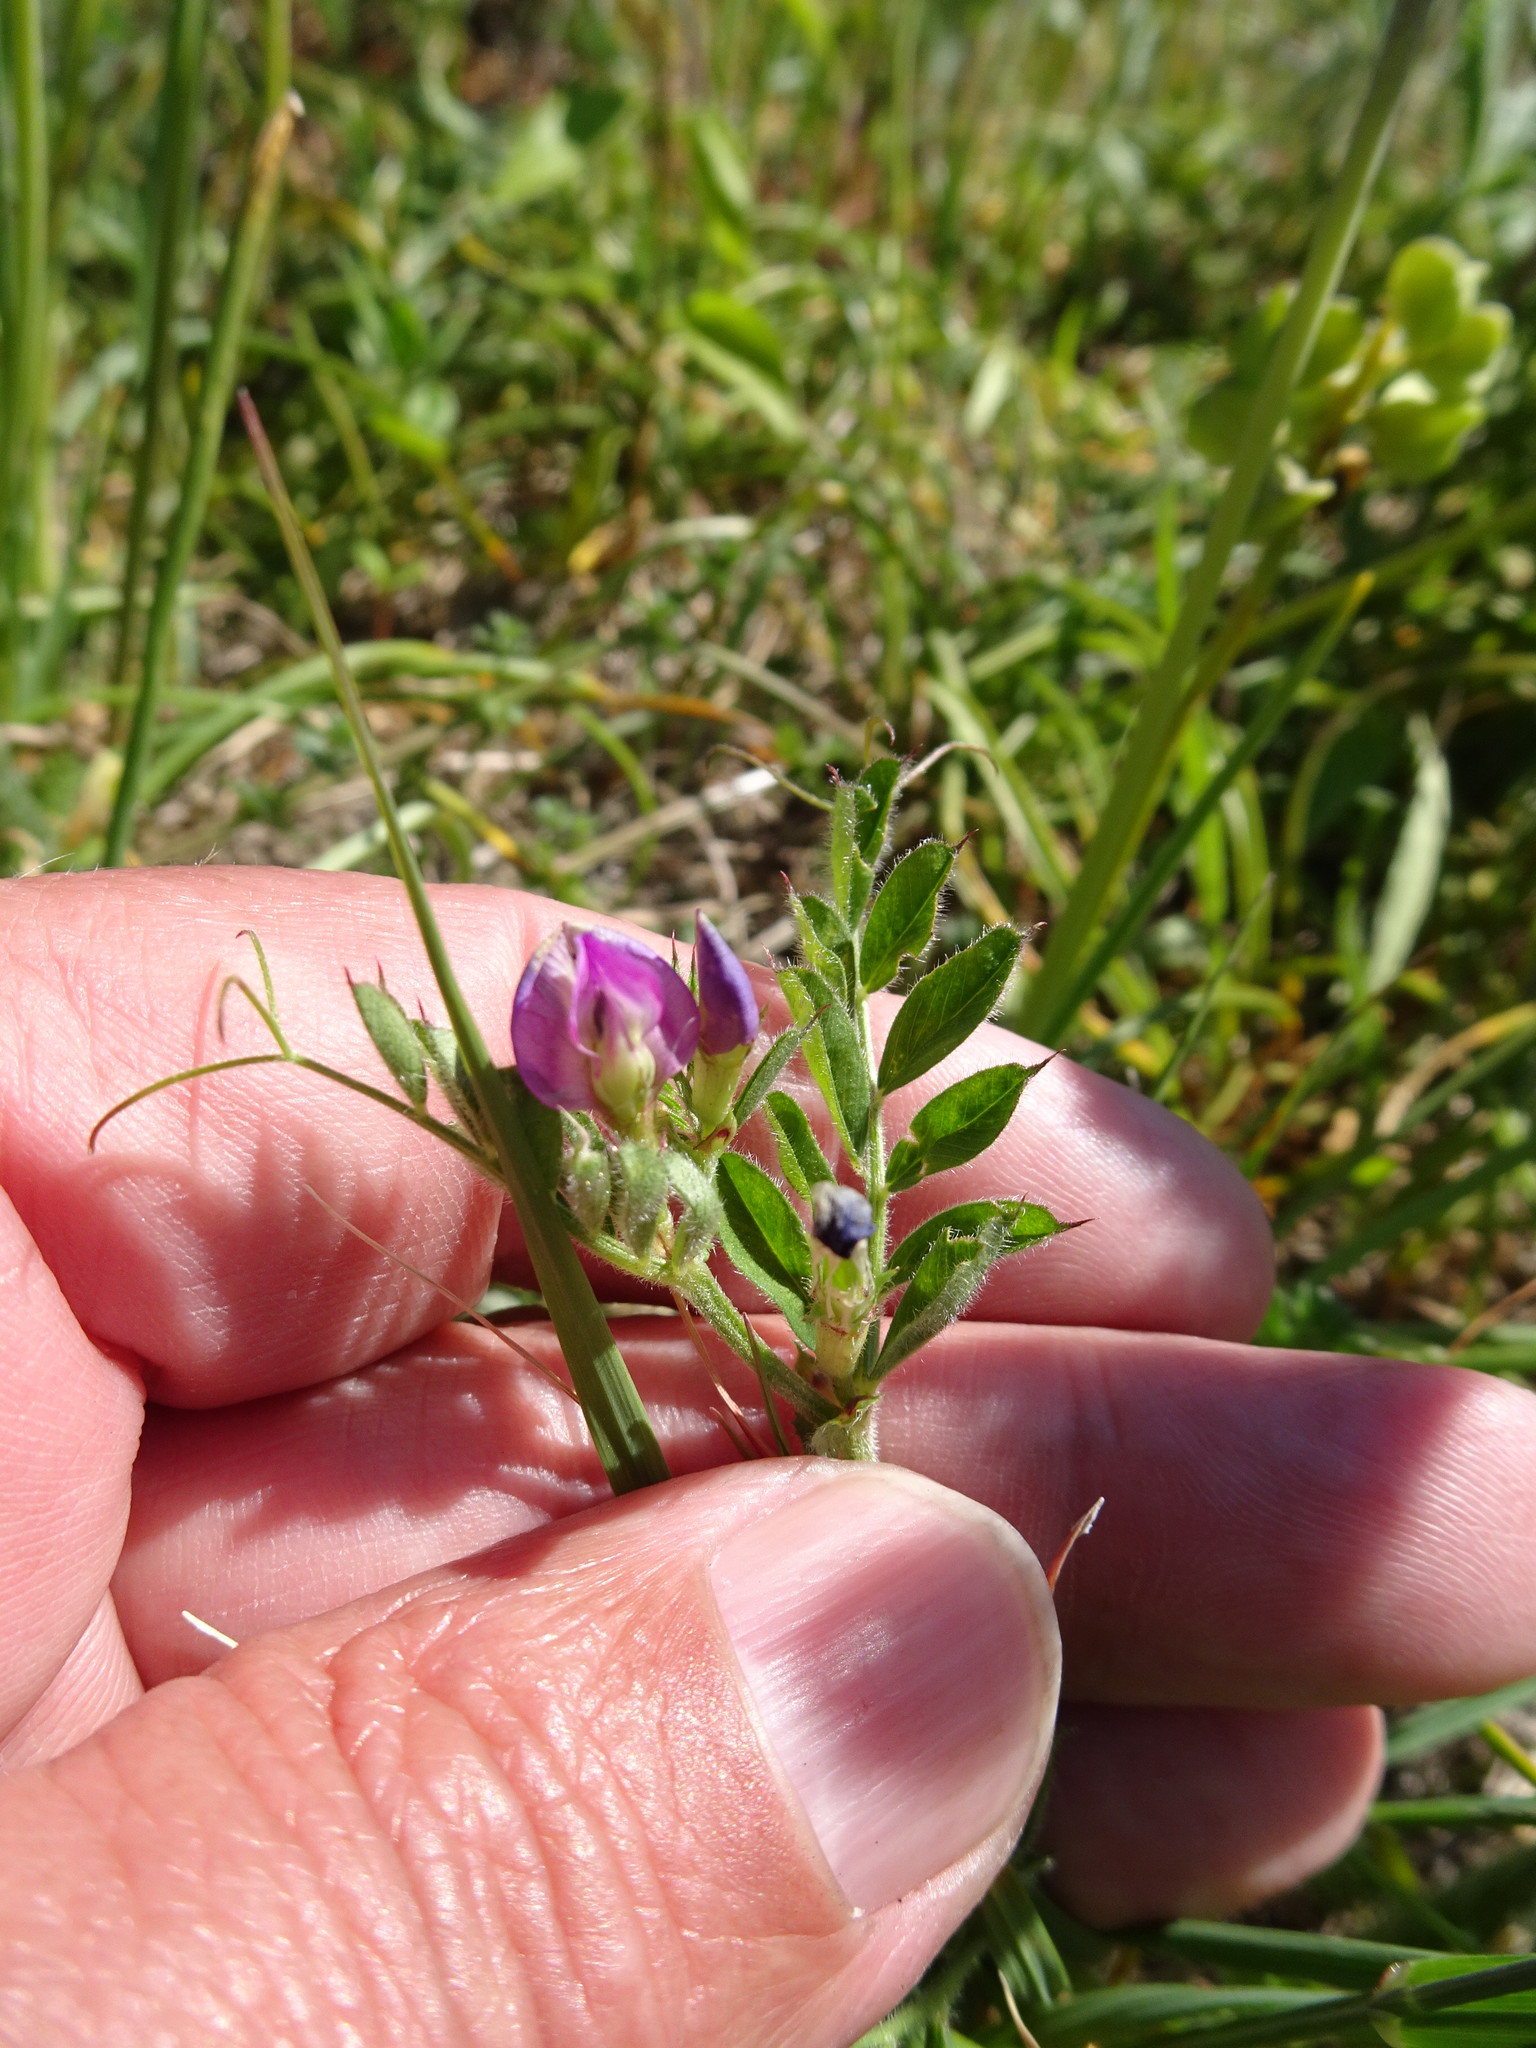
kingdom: Plantae
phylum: Tracheophyta
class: Magnoliopsida
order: Fabales
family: Fabaceae
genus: Vicia
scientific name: Vicia sativa
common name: Garden vetch
